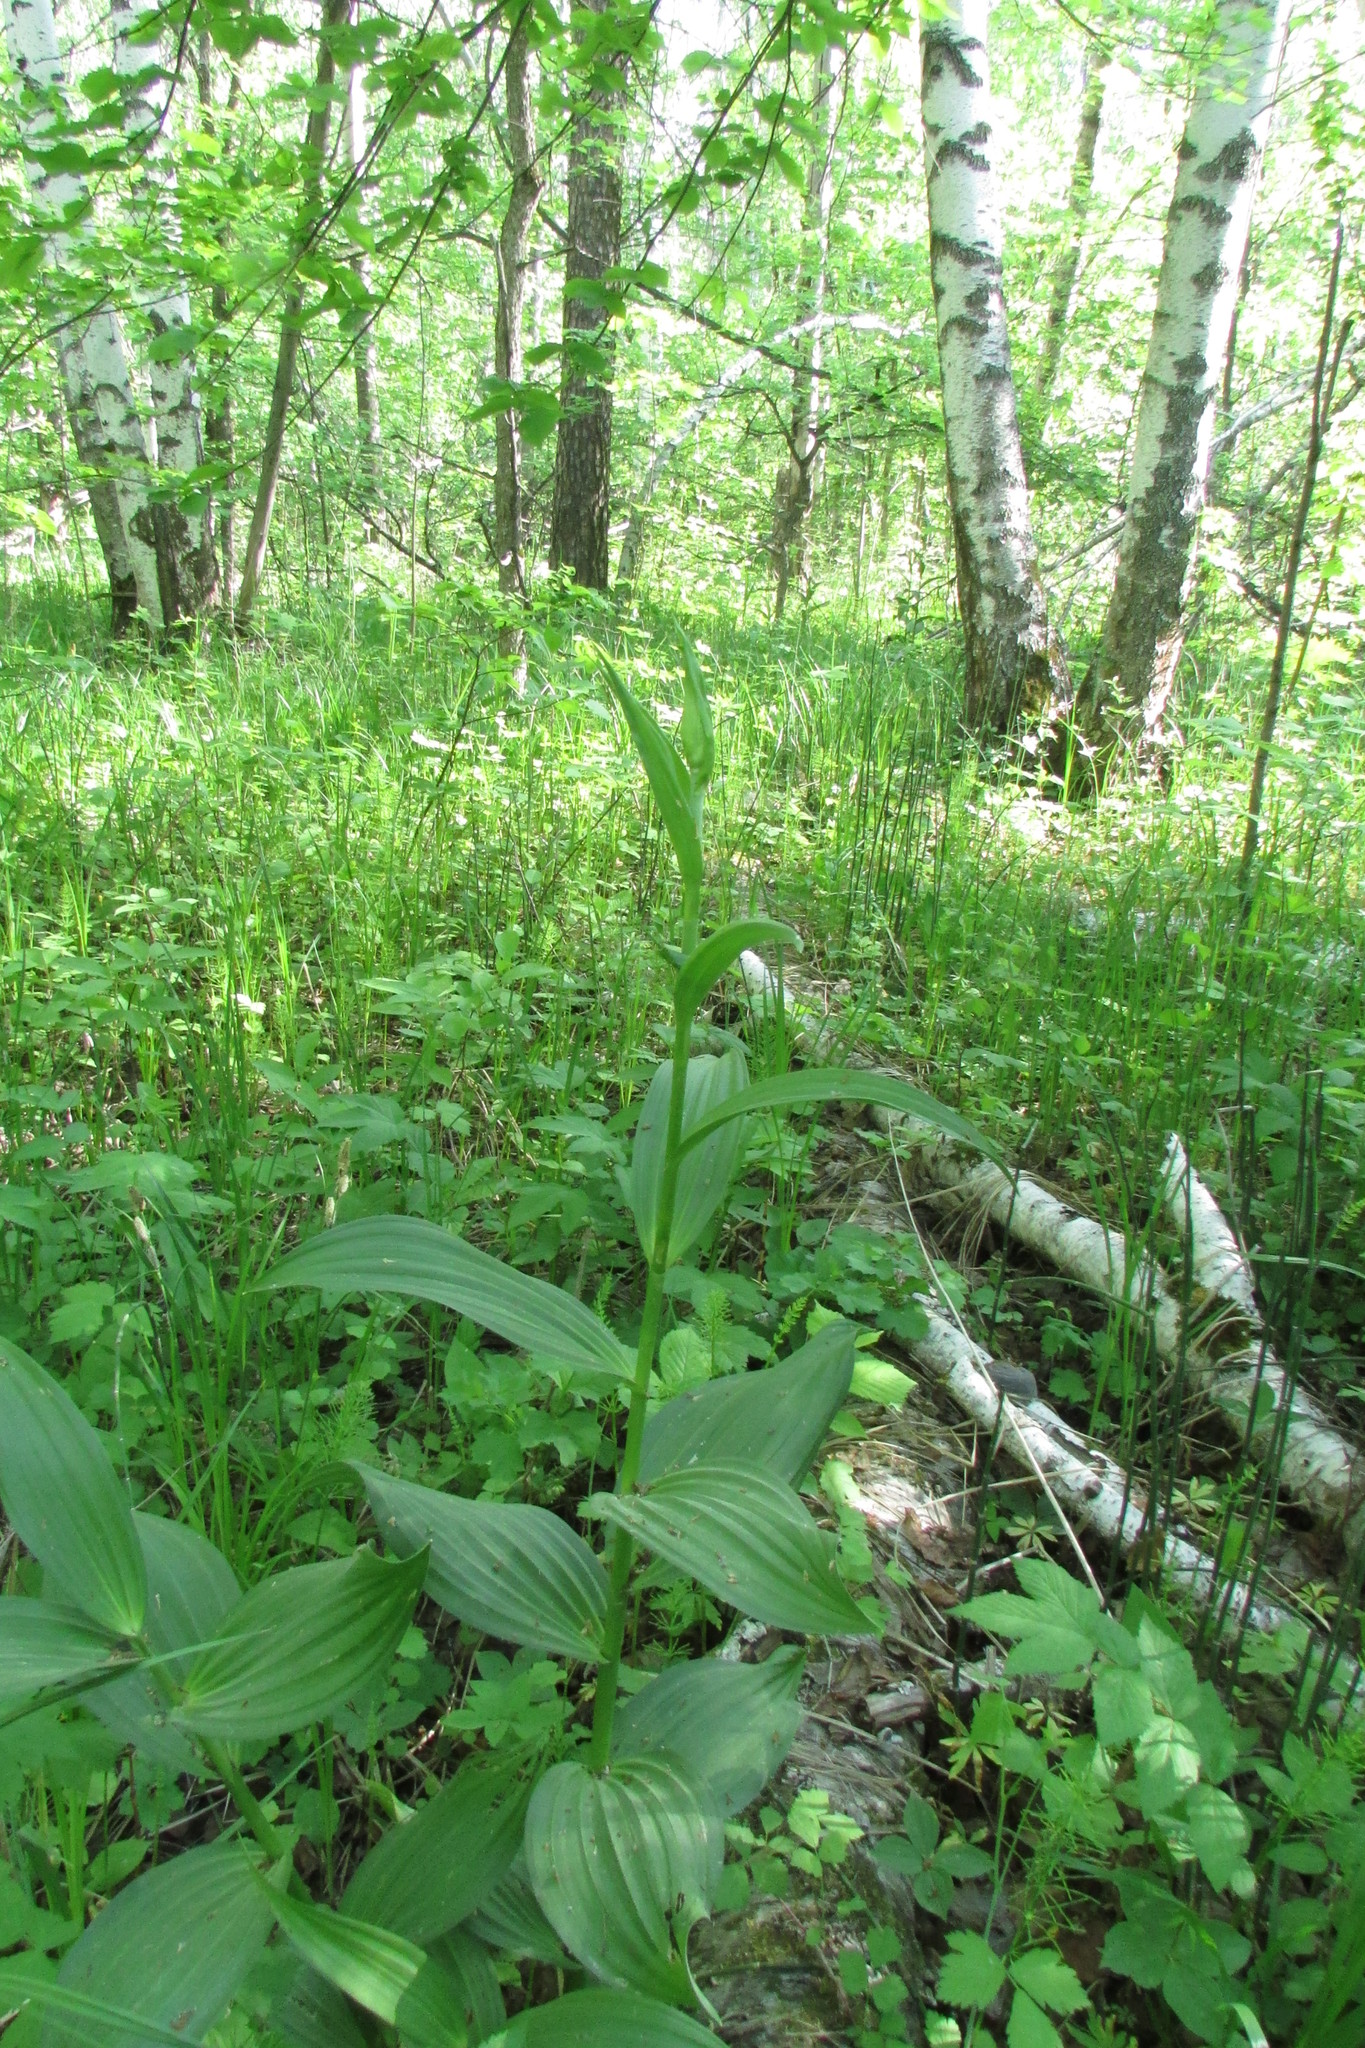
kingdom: Plantae
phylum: Tracheophyta
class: Liliopsida
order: Liliales
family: Melanthiaceae
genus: Veratrum
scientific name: Veratrum lobelianum
